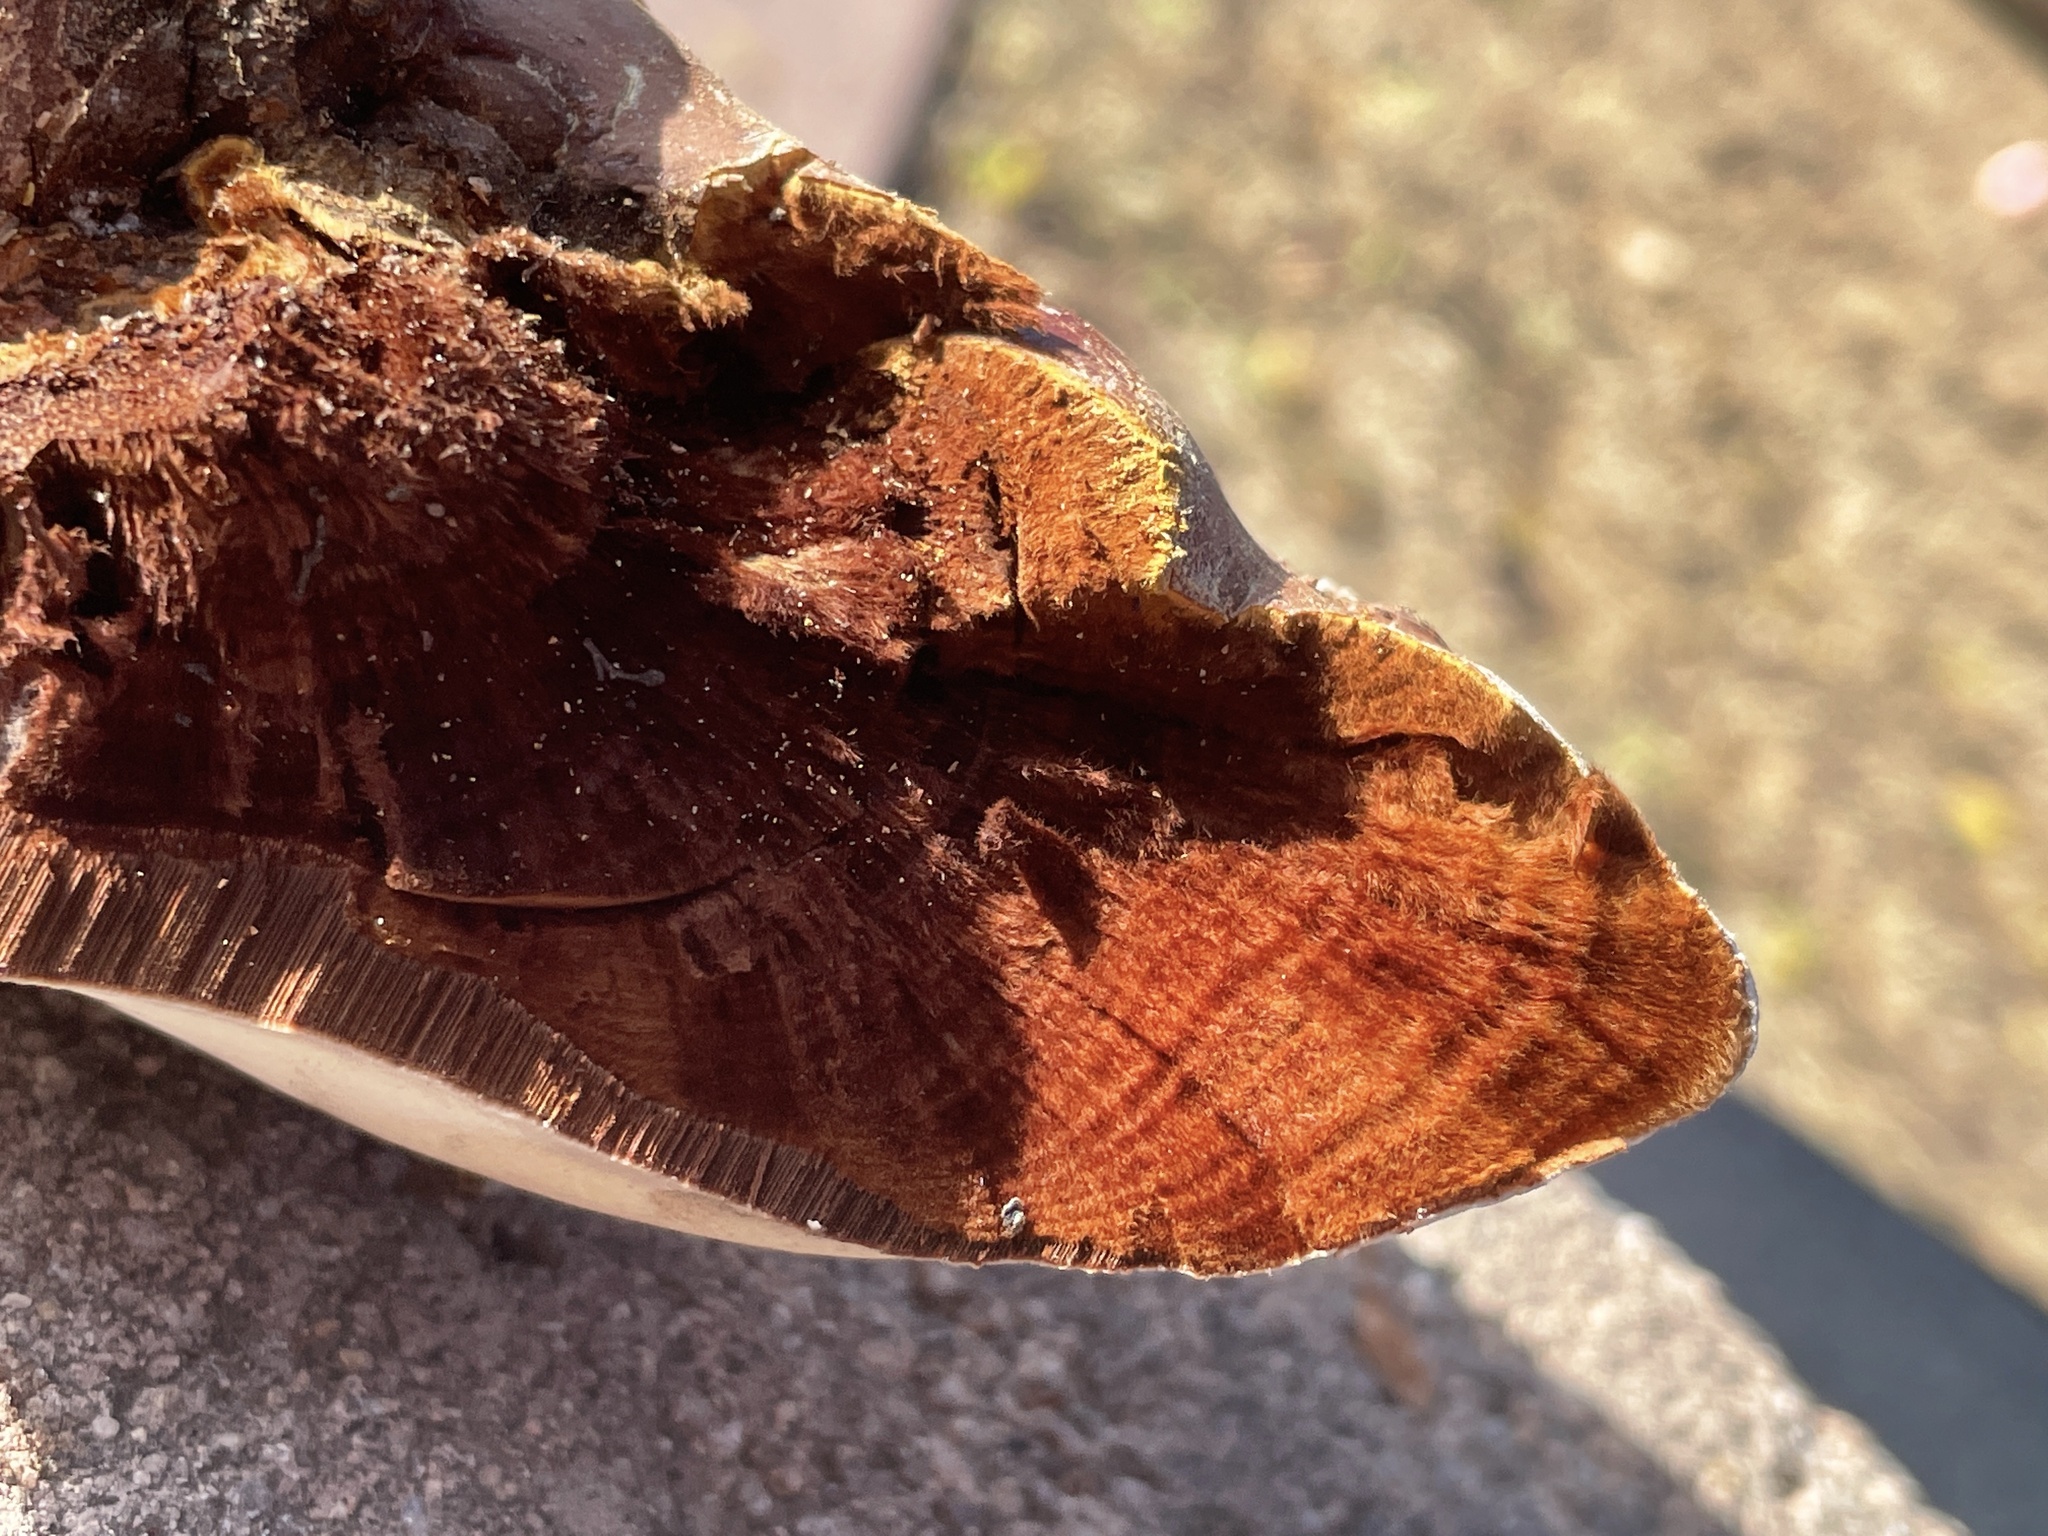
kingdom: Fungi
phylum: Basidiomycota
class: Agaricomycetes
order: Polyporales
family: Polyporaceae
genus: Ganoderma
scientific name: Ganoderma polychromum
